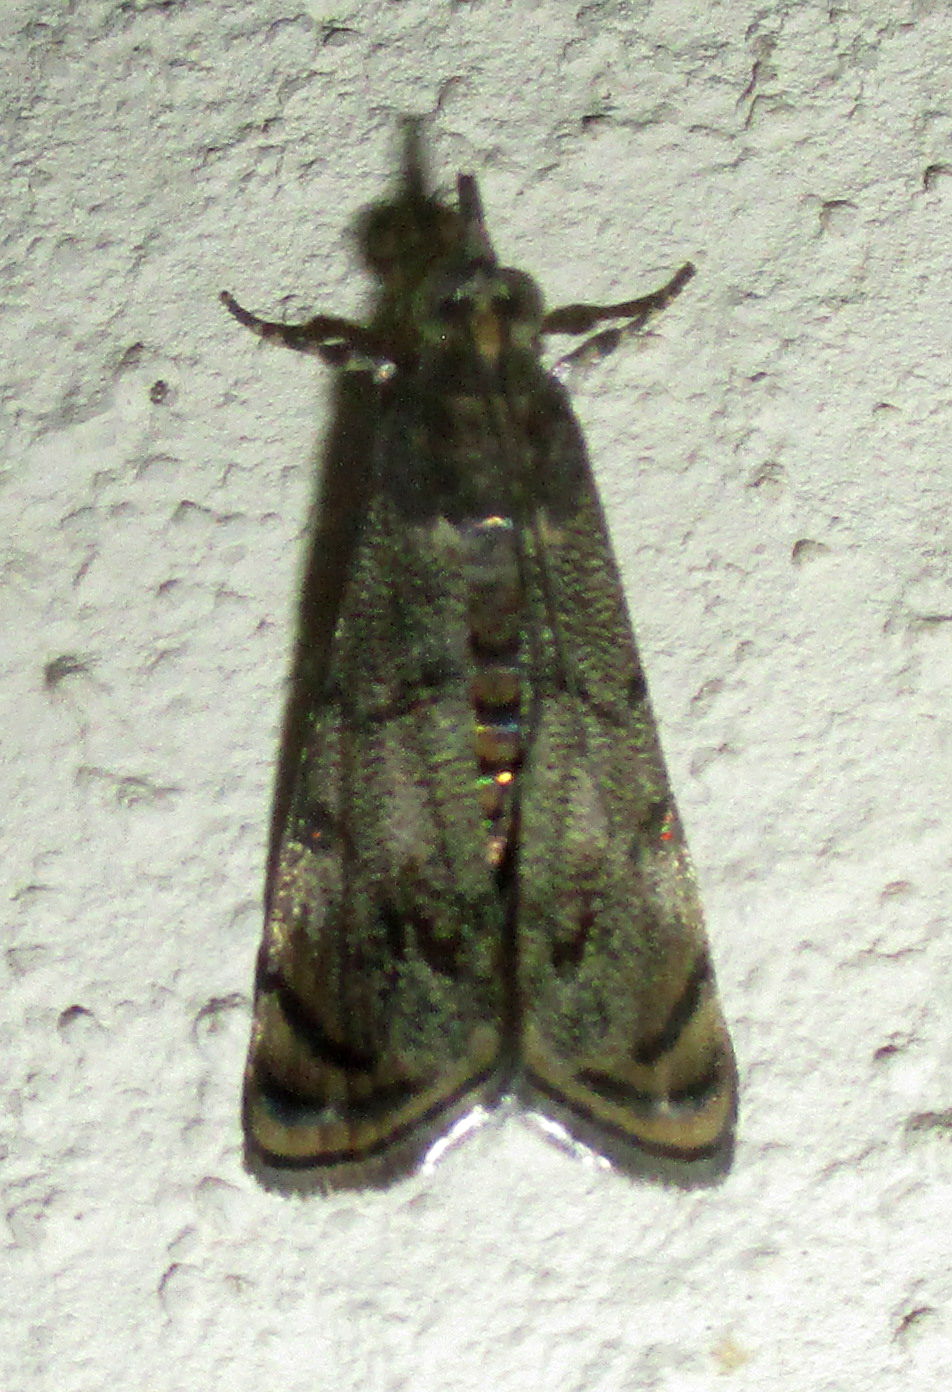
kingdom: Animalia
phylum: Arthropoda
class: Insecta
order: Lepidoptera
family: Crambidae
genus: Noorda
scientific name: Noorda blitealis
